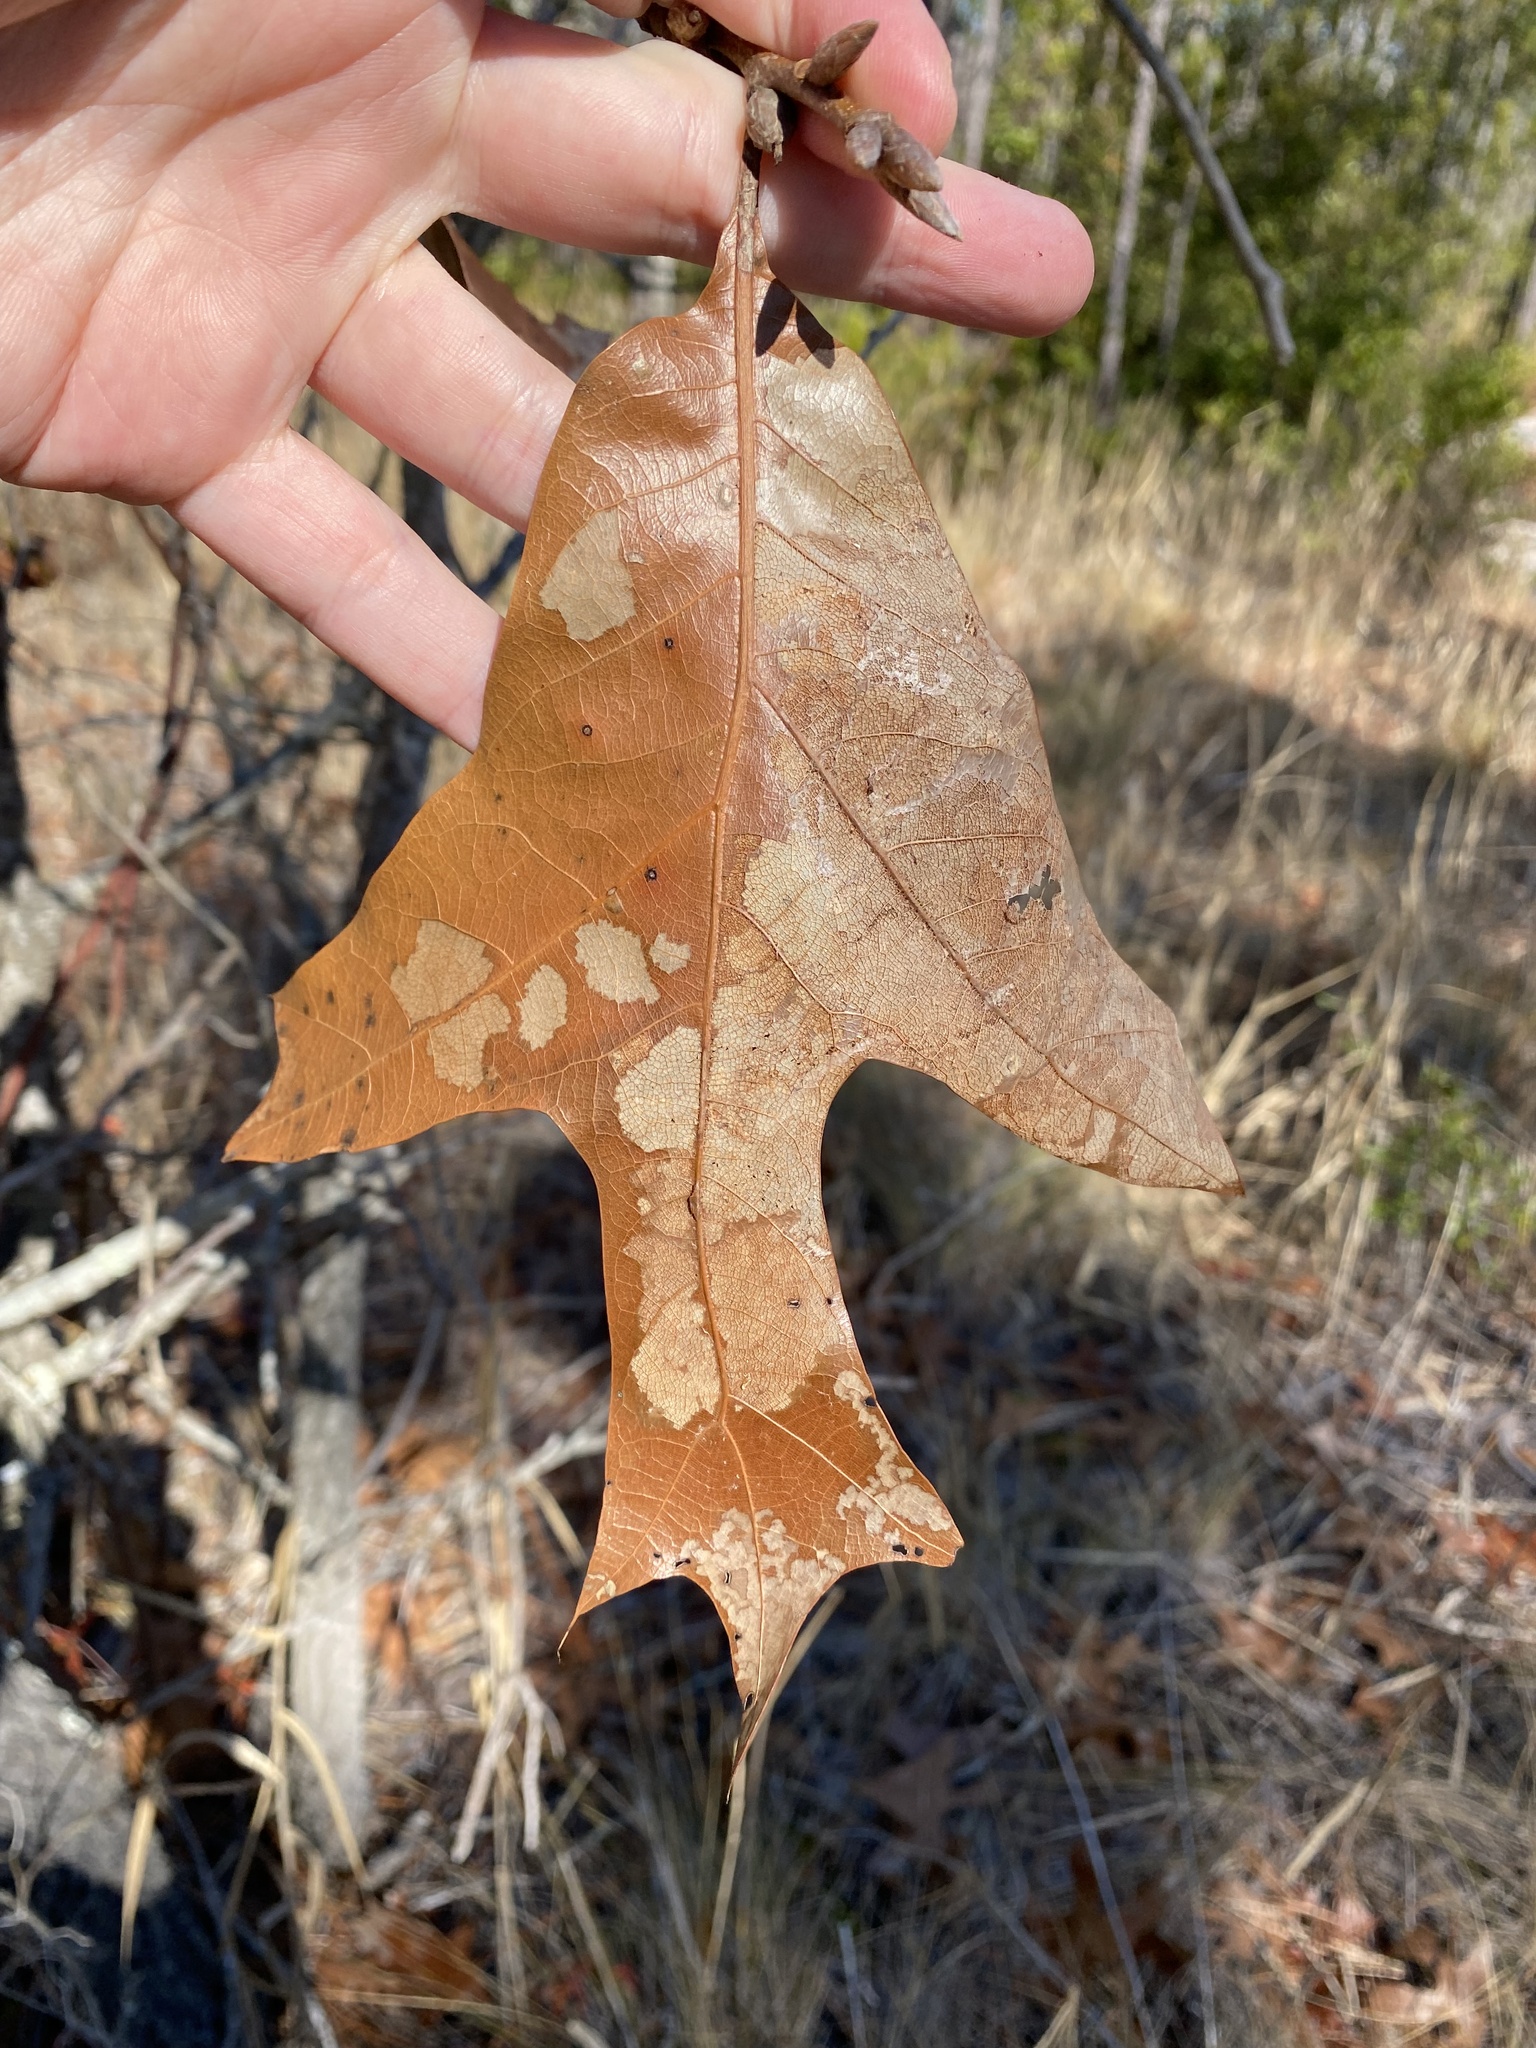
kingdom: Plantae
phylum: Tracheophyta
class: Magnoliopsida
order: Fagales
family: Fagaceae
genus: Quercus
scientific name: Quercus laevis
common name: Turkey oak
